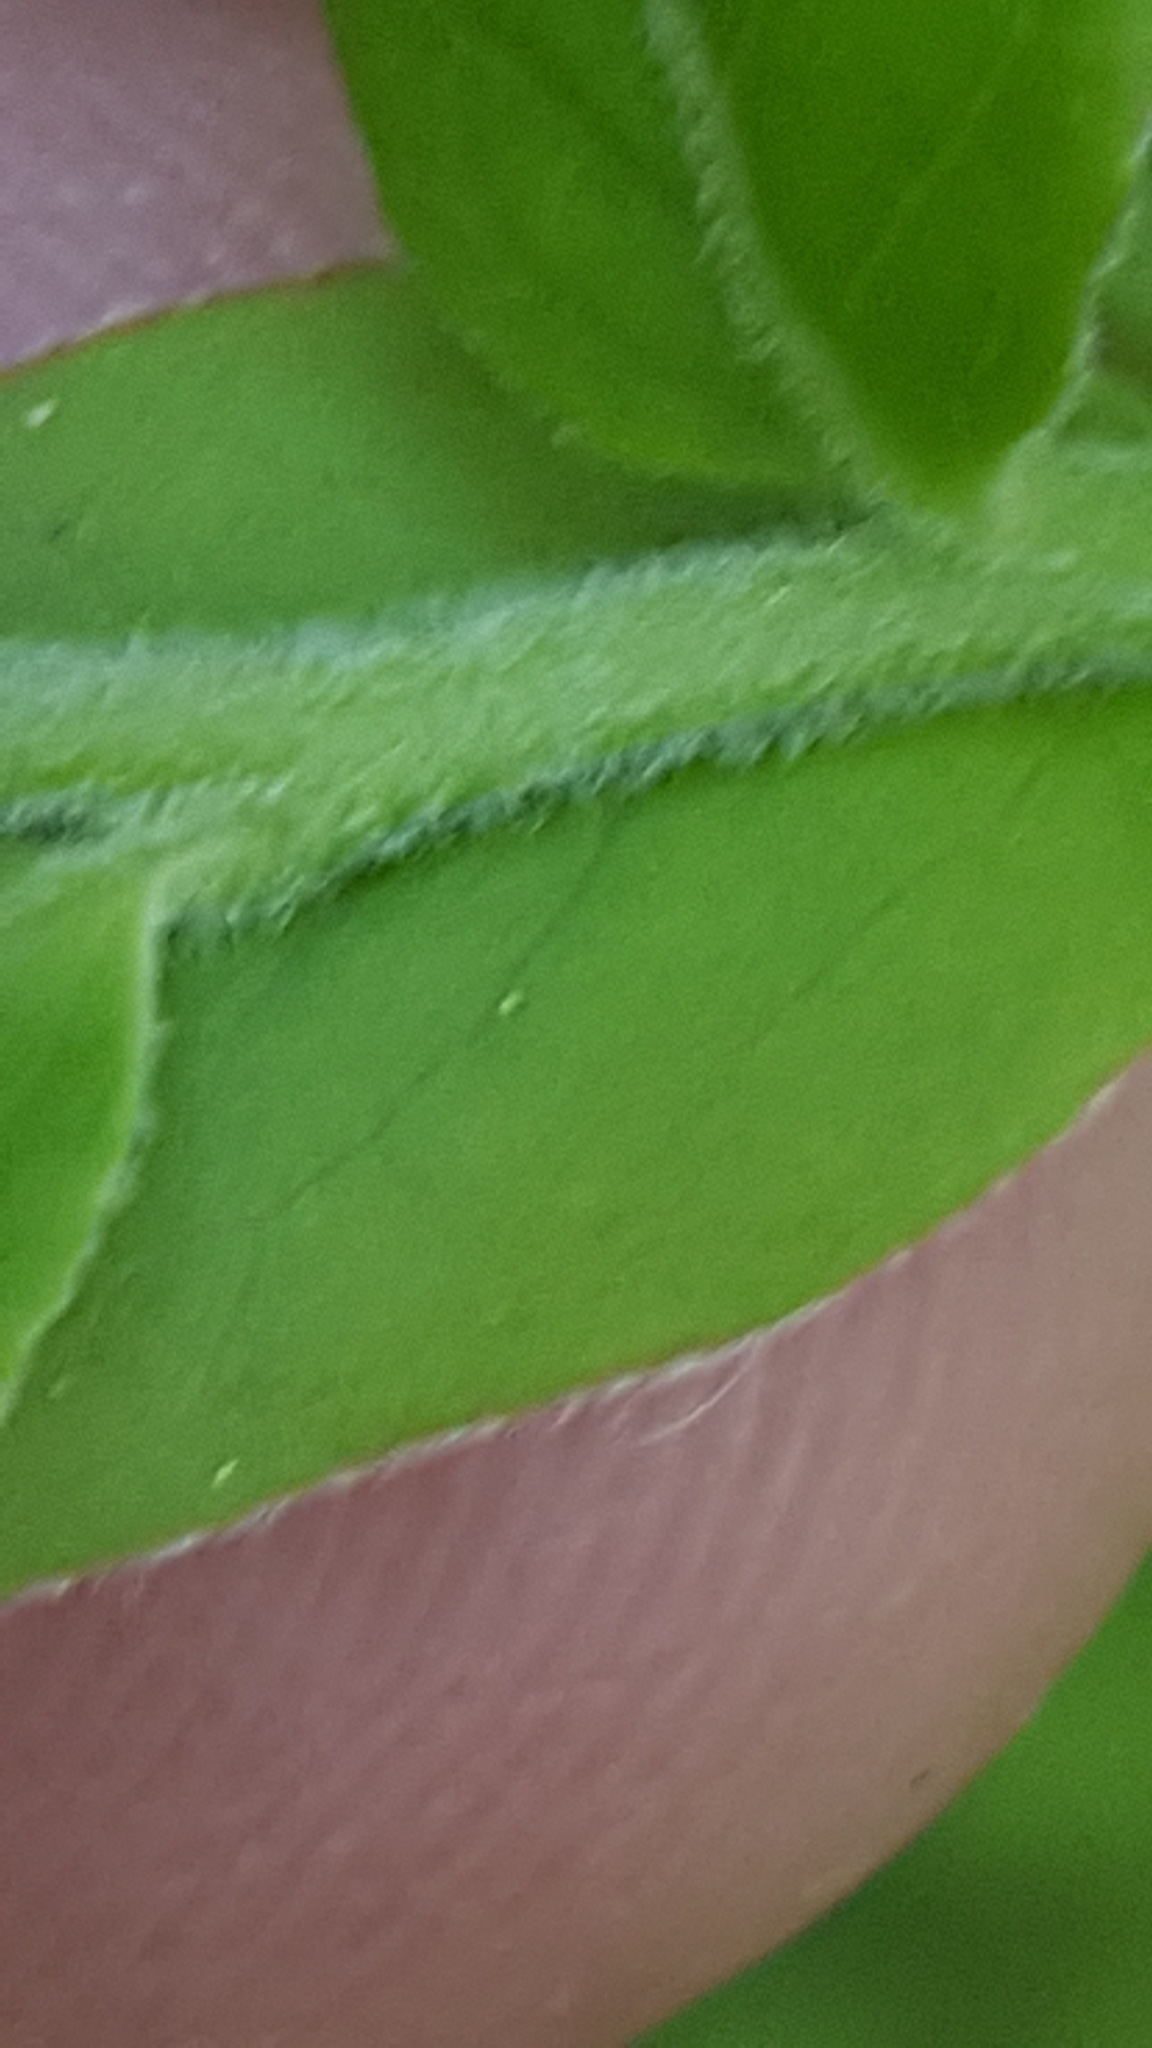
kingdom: Plantae
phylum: Tracheophyta
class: Magnoliopsida
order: Ericales
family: Ericaceae
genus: Vaccinium
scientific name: Vaccinium myrtilloides
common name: Canada blueberry
